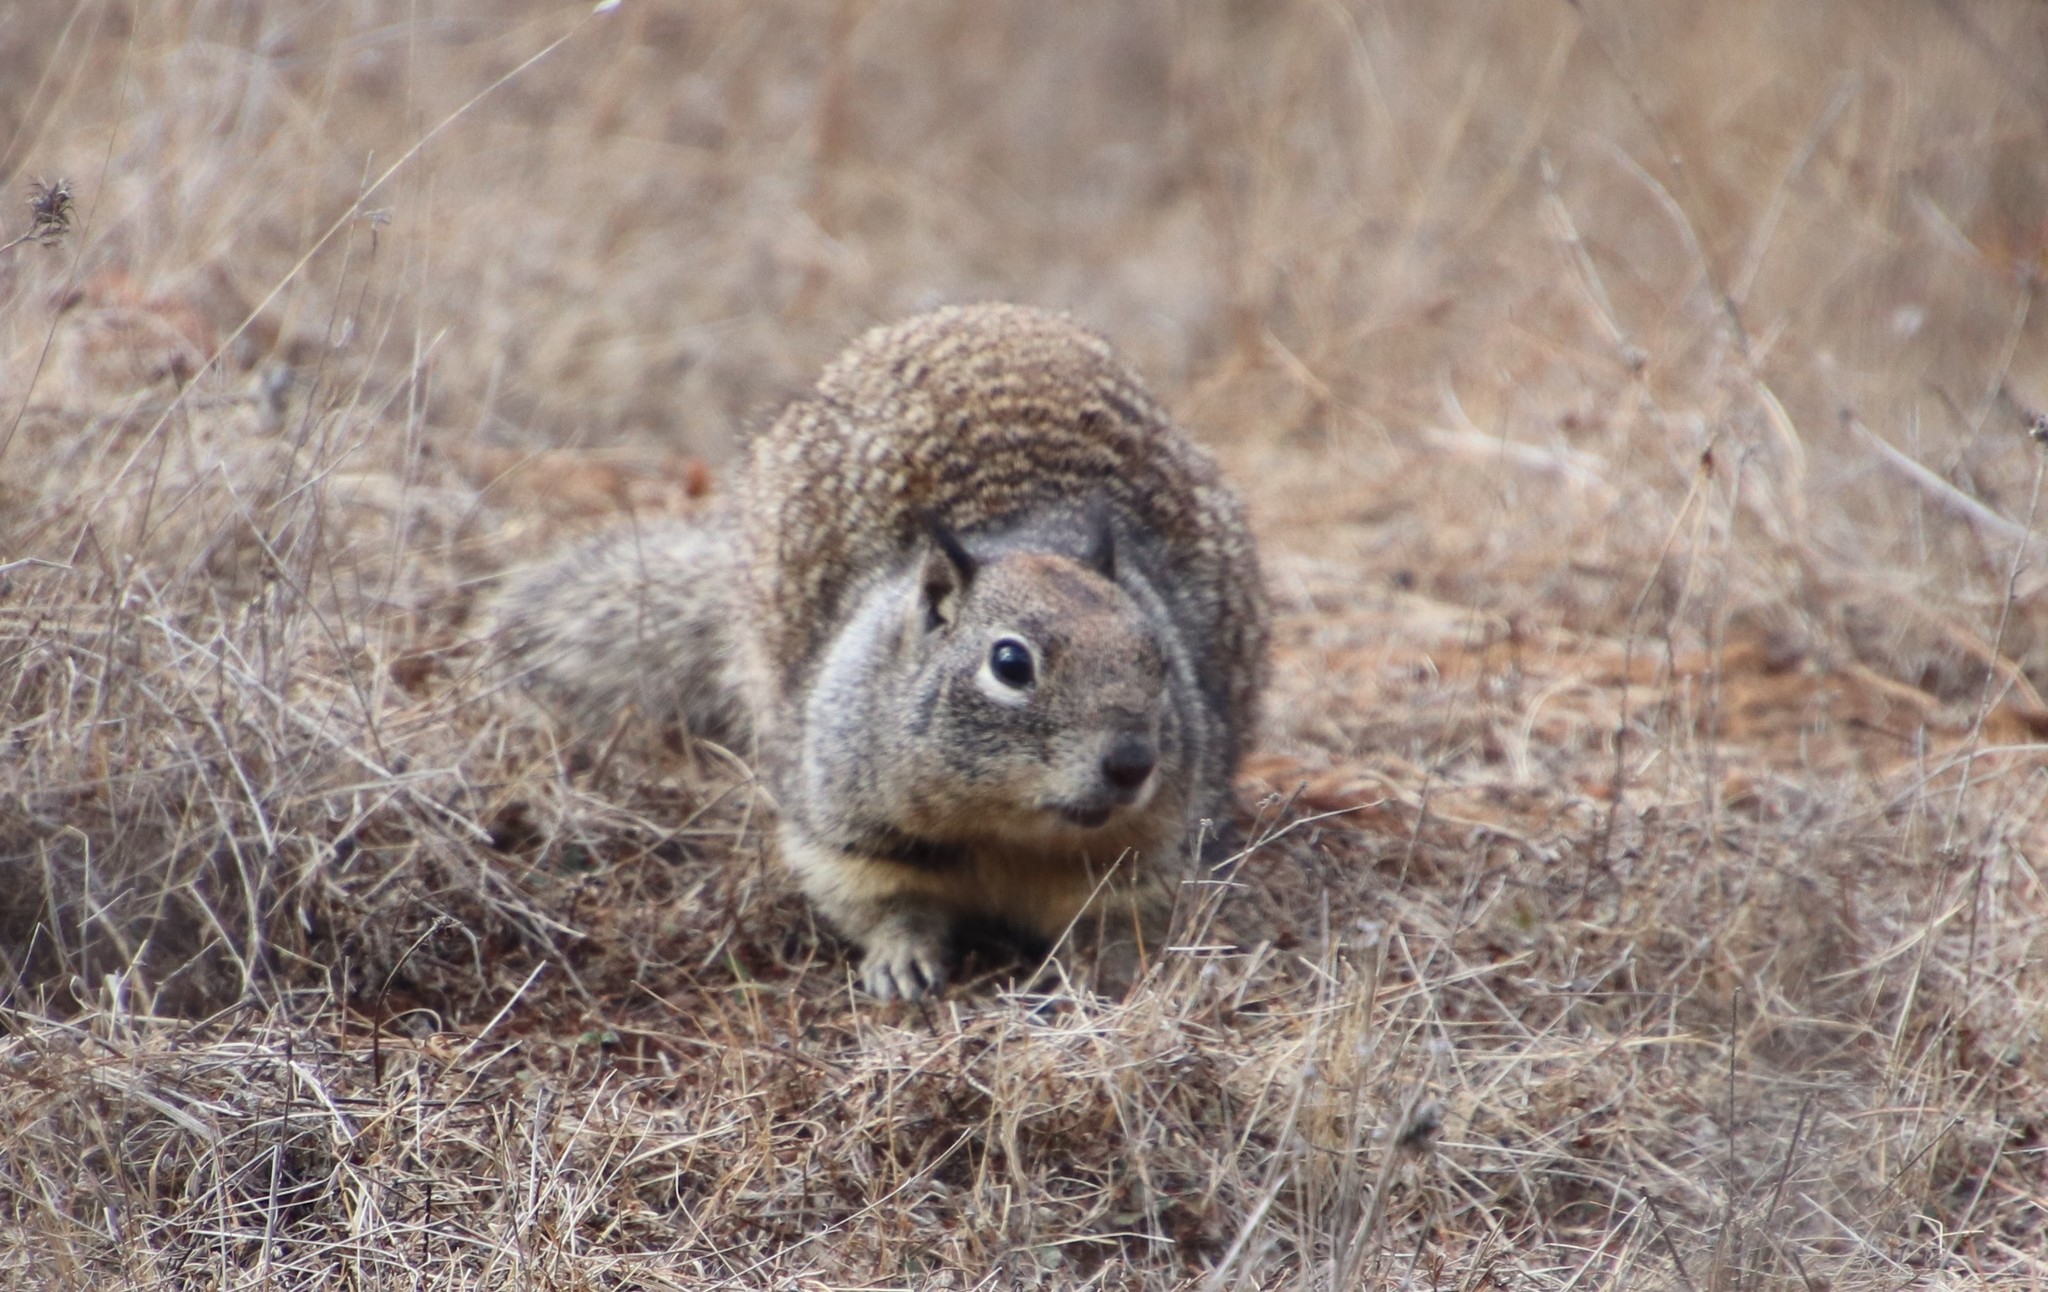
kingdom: Animalia
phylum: Chordata
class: Mammalia
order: Rodentia
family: Sciuridae
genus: Otospermophilus
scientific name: Otospermophilus beecheyi
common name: California ground squirrel
